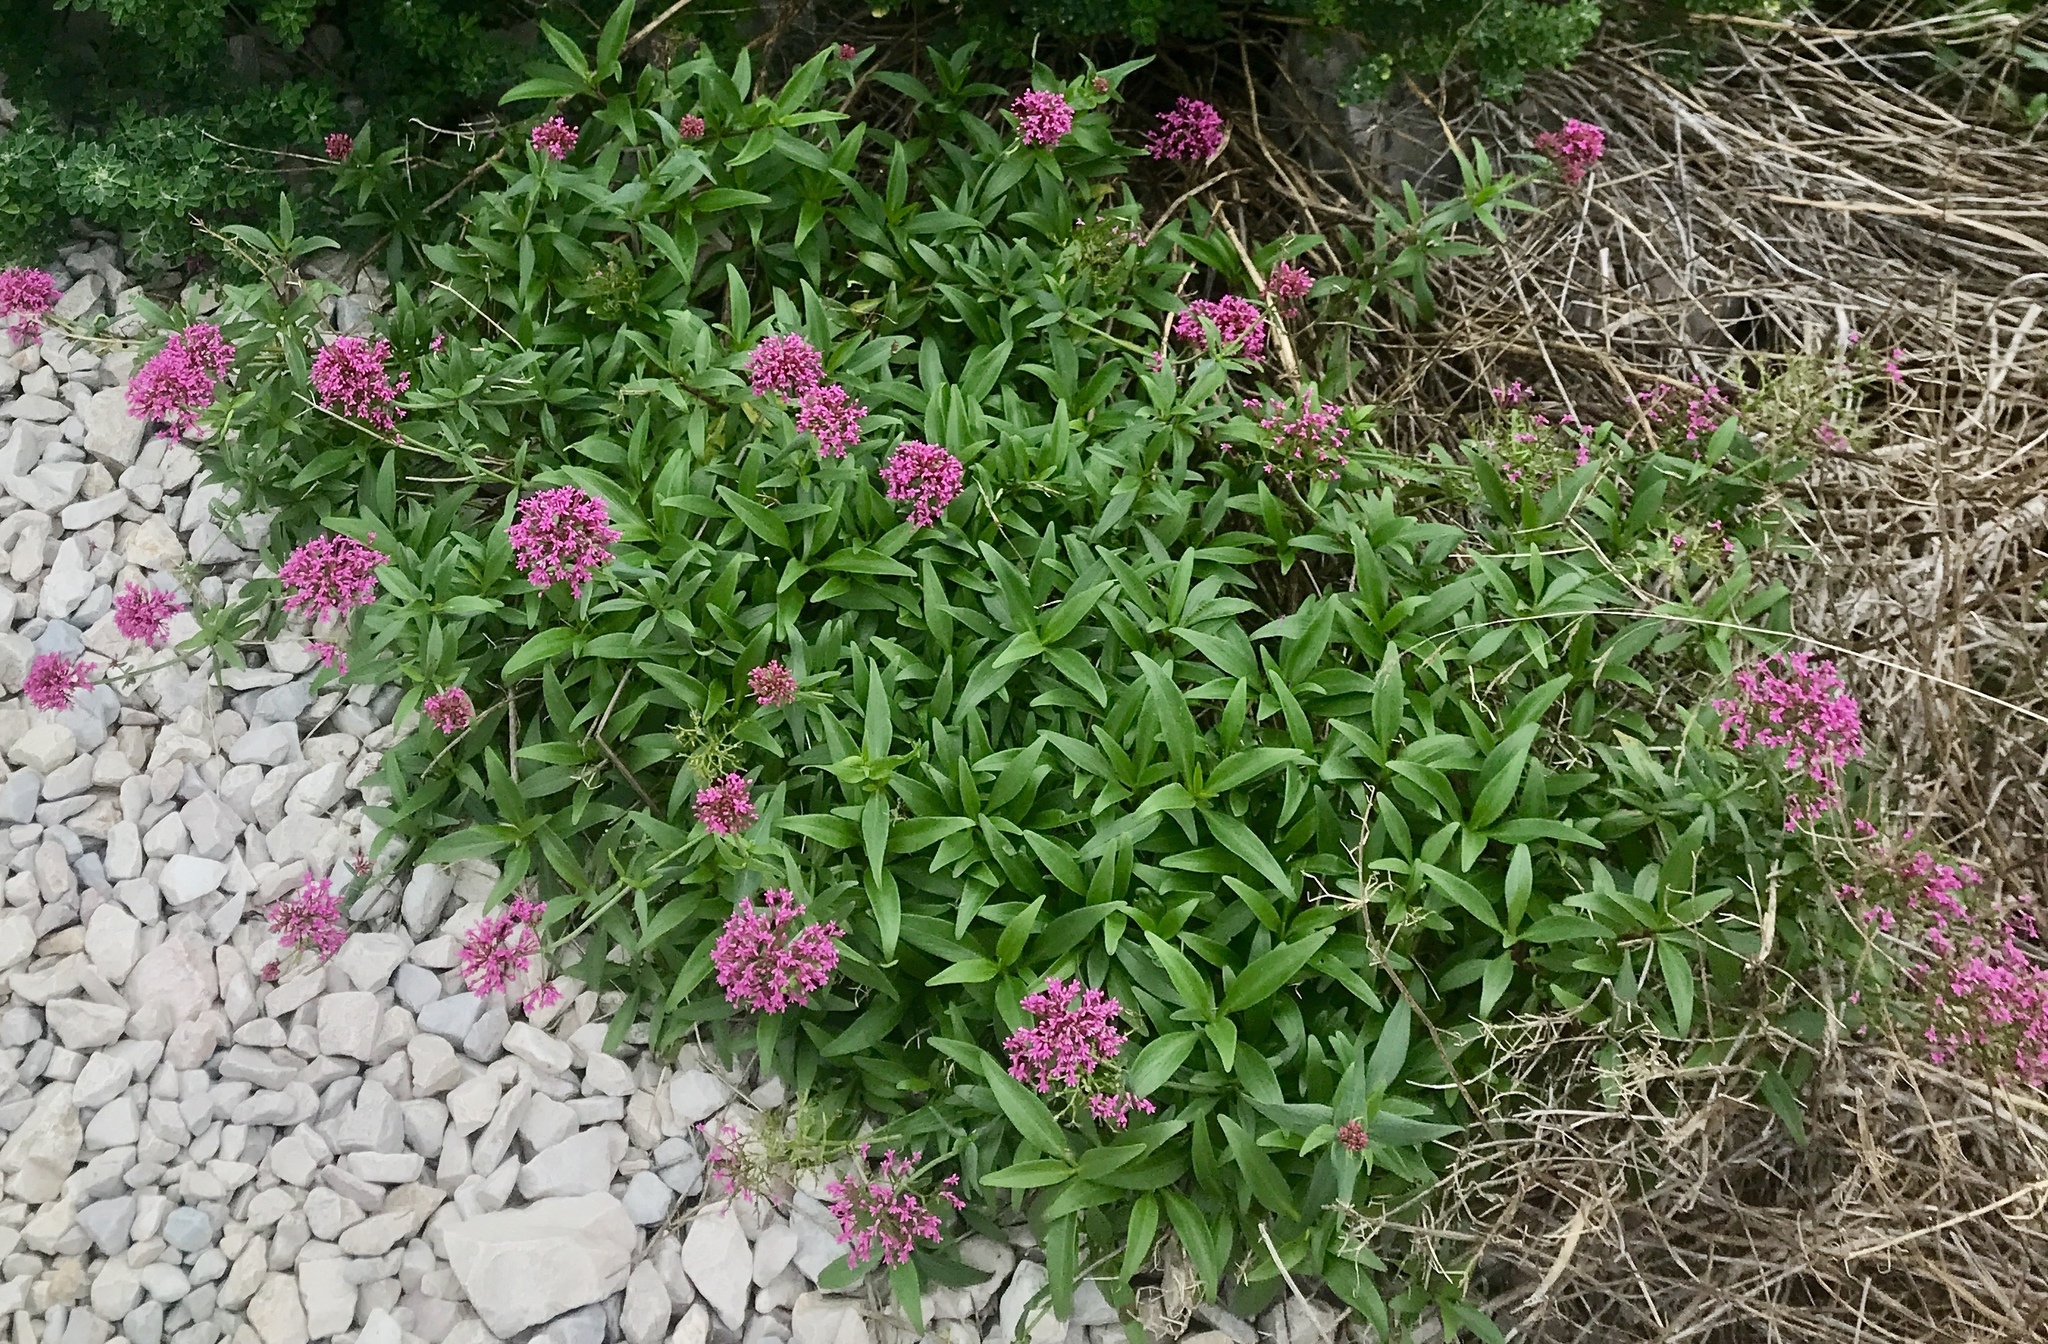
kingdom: Plantae
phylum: Tracheophyta
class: Magnoliopsida
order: Dipsacales
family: Caprifoliaceae
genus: Centranthus
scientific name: Centranthus ruber
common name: Red valerian
